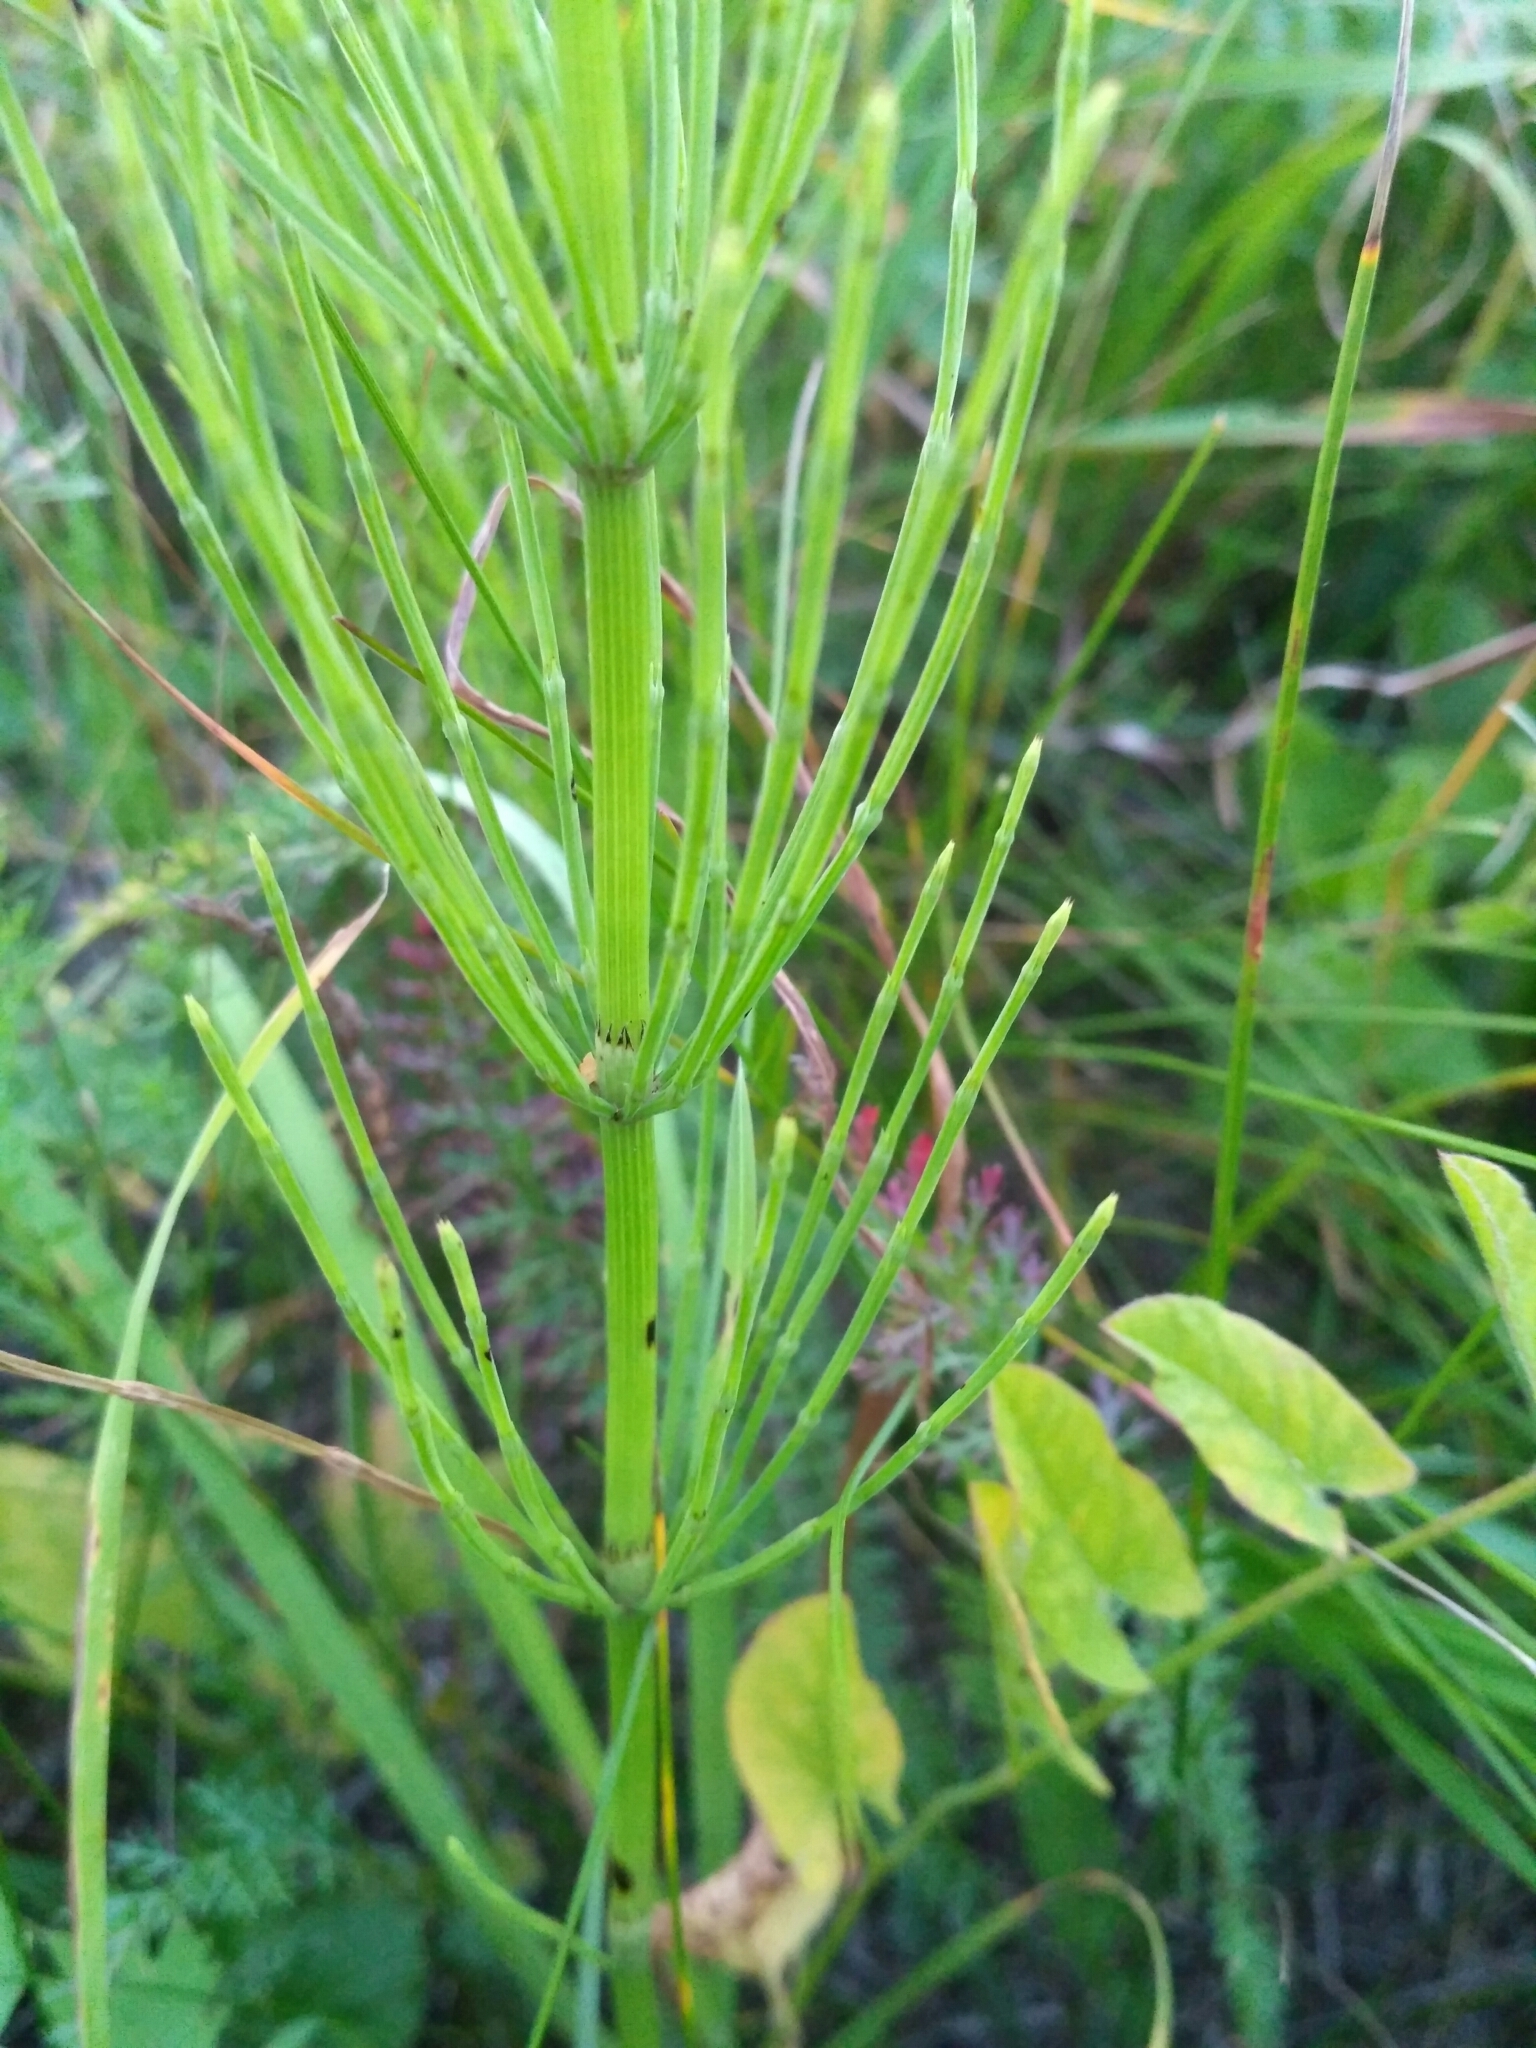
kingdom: Plantae
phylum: Tracheophyta
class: Polypodiopsida
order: Equisetales
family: Equisetaceae
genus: Equisetum
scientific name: Equisetum arvense
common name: Field horsetail
